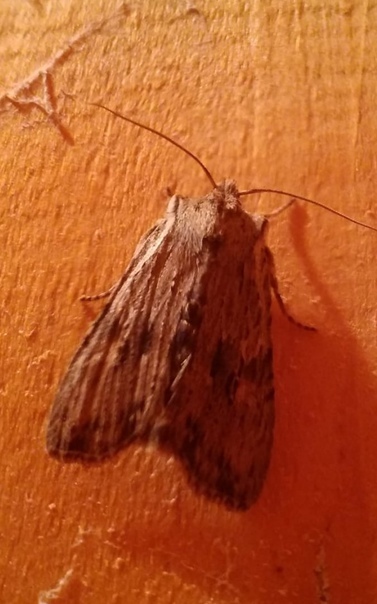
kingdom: Animalia
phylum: Arthropoda
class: Insecta
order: Lepidoptera
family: Noctuidae
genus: Lithophane
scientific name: Lithophane socia
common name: Pale pinion
